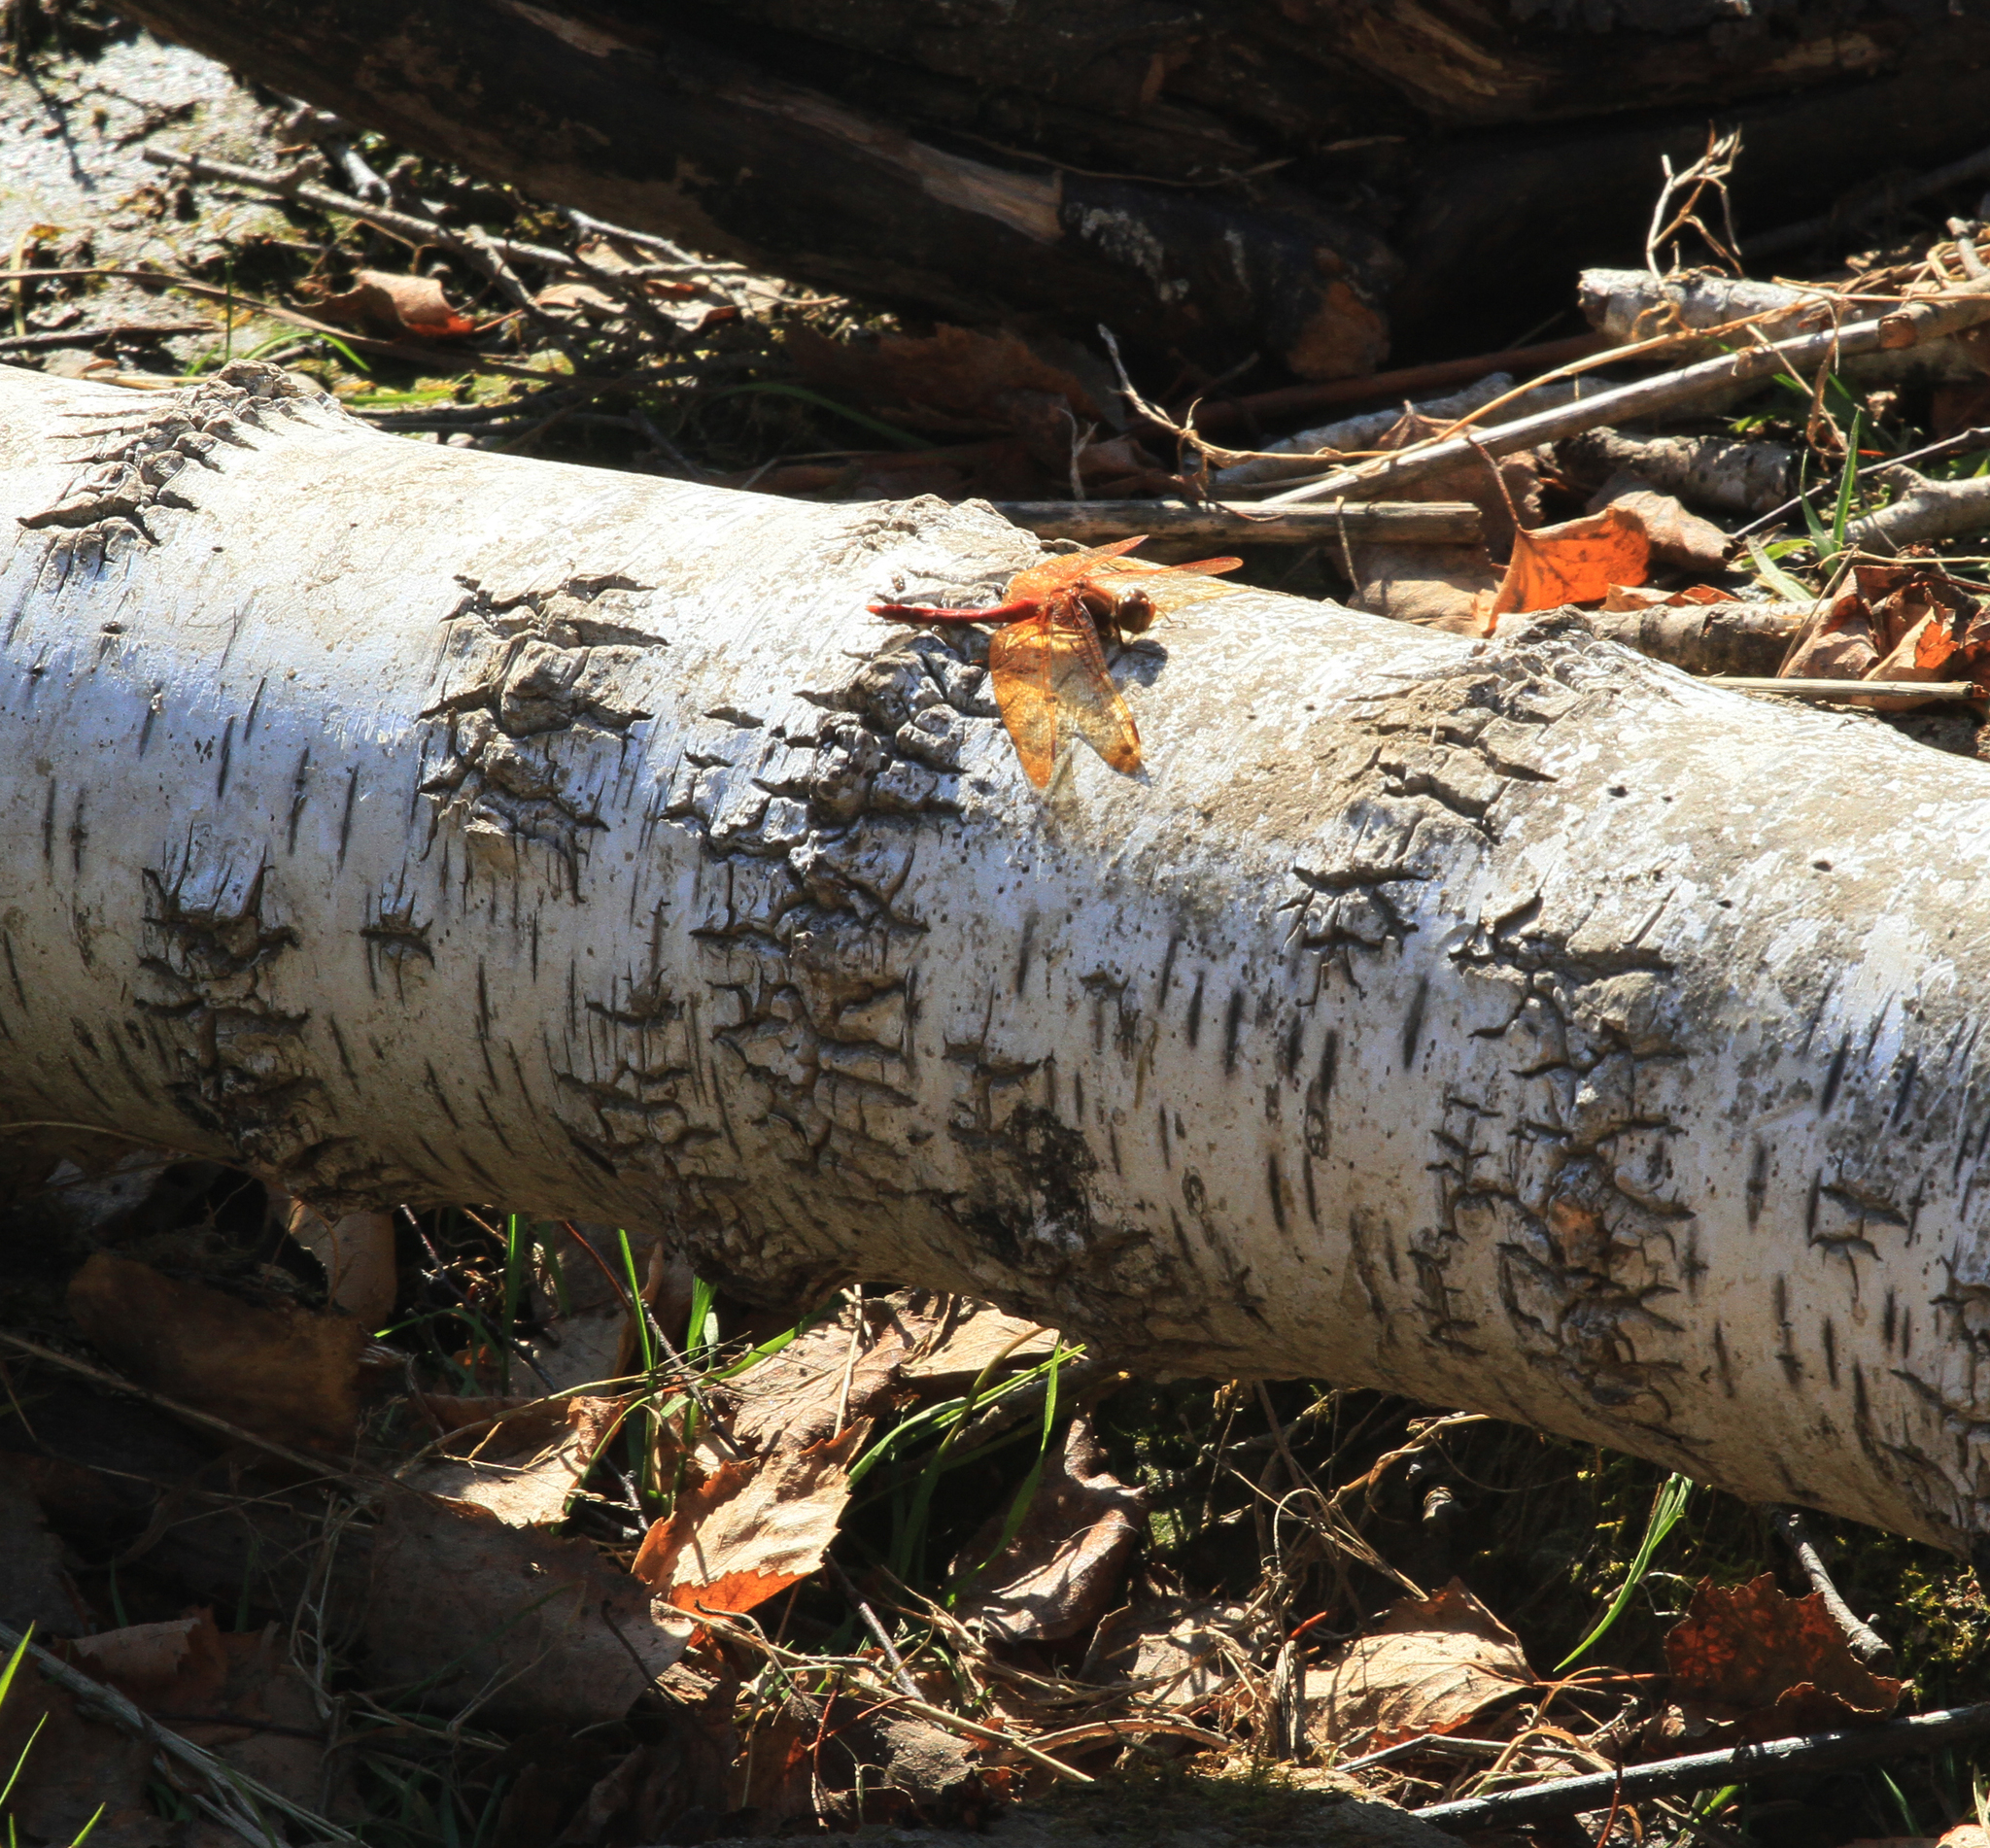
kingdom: Animalia
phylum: Arthropoda
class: Insecta
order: Odonata
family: Libellulidae
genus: Sympetrum
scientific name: Sympetrum croceolum
